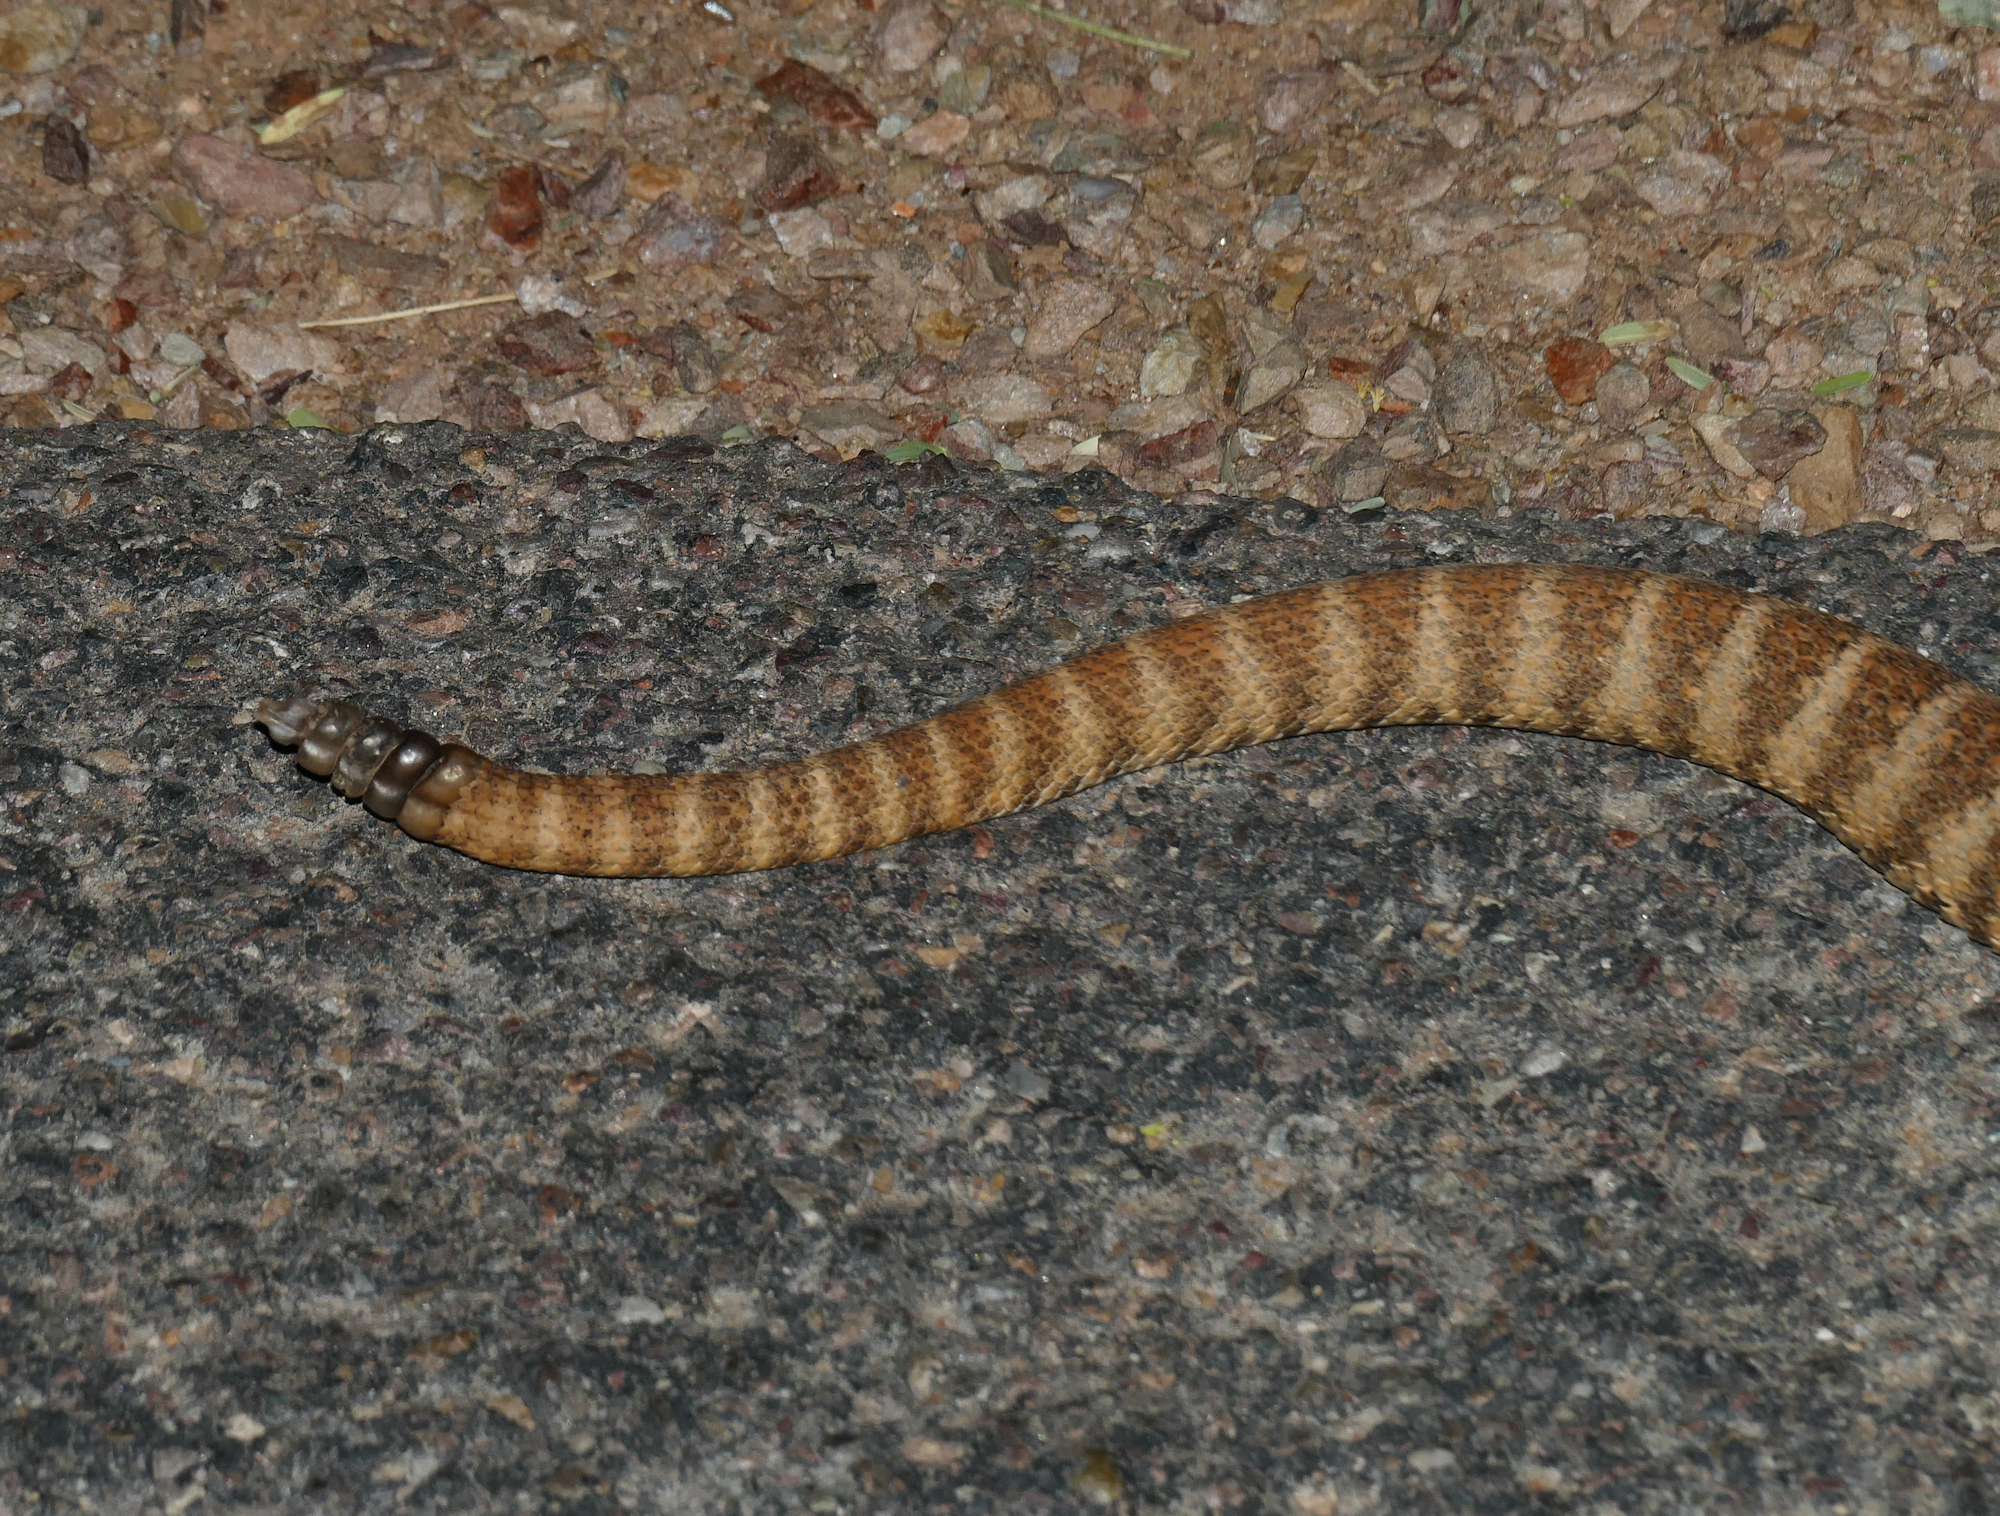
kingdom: Animalia
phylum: Chordata
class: Squamata
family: Viperidae
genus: Crotalus
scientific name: Crotalus tigris
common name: Tiger rattlesnake
